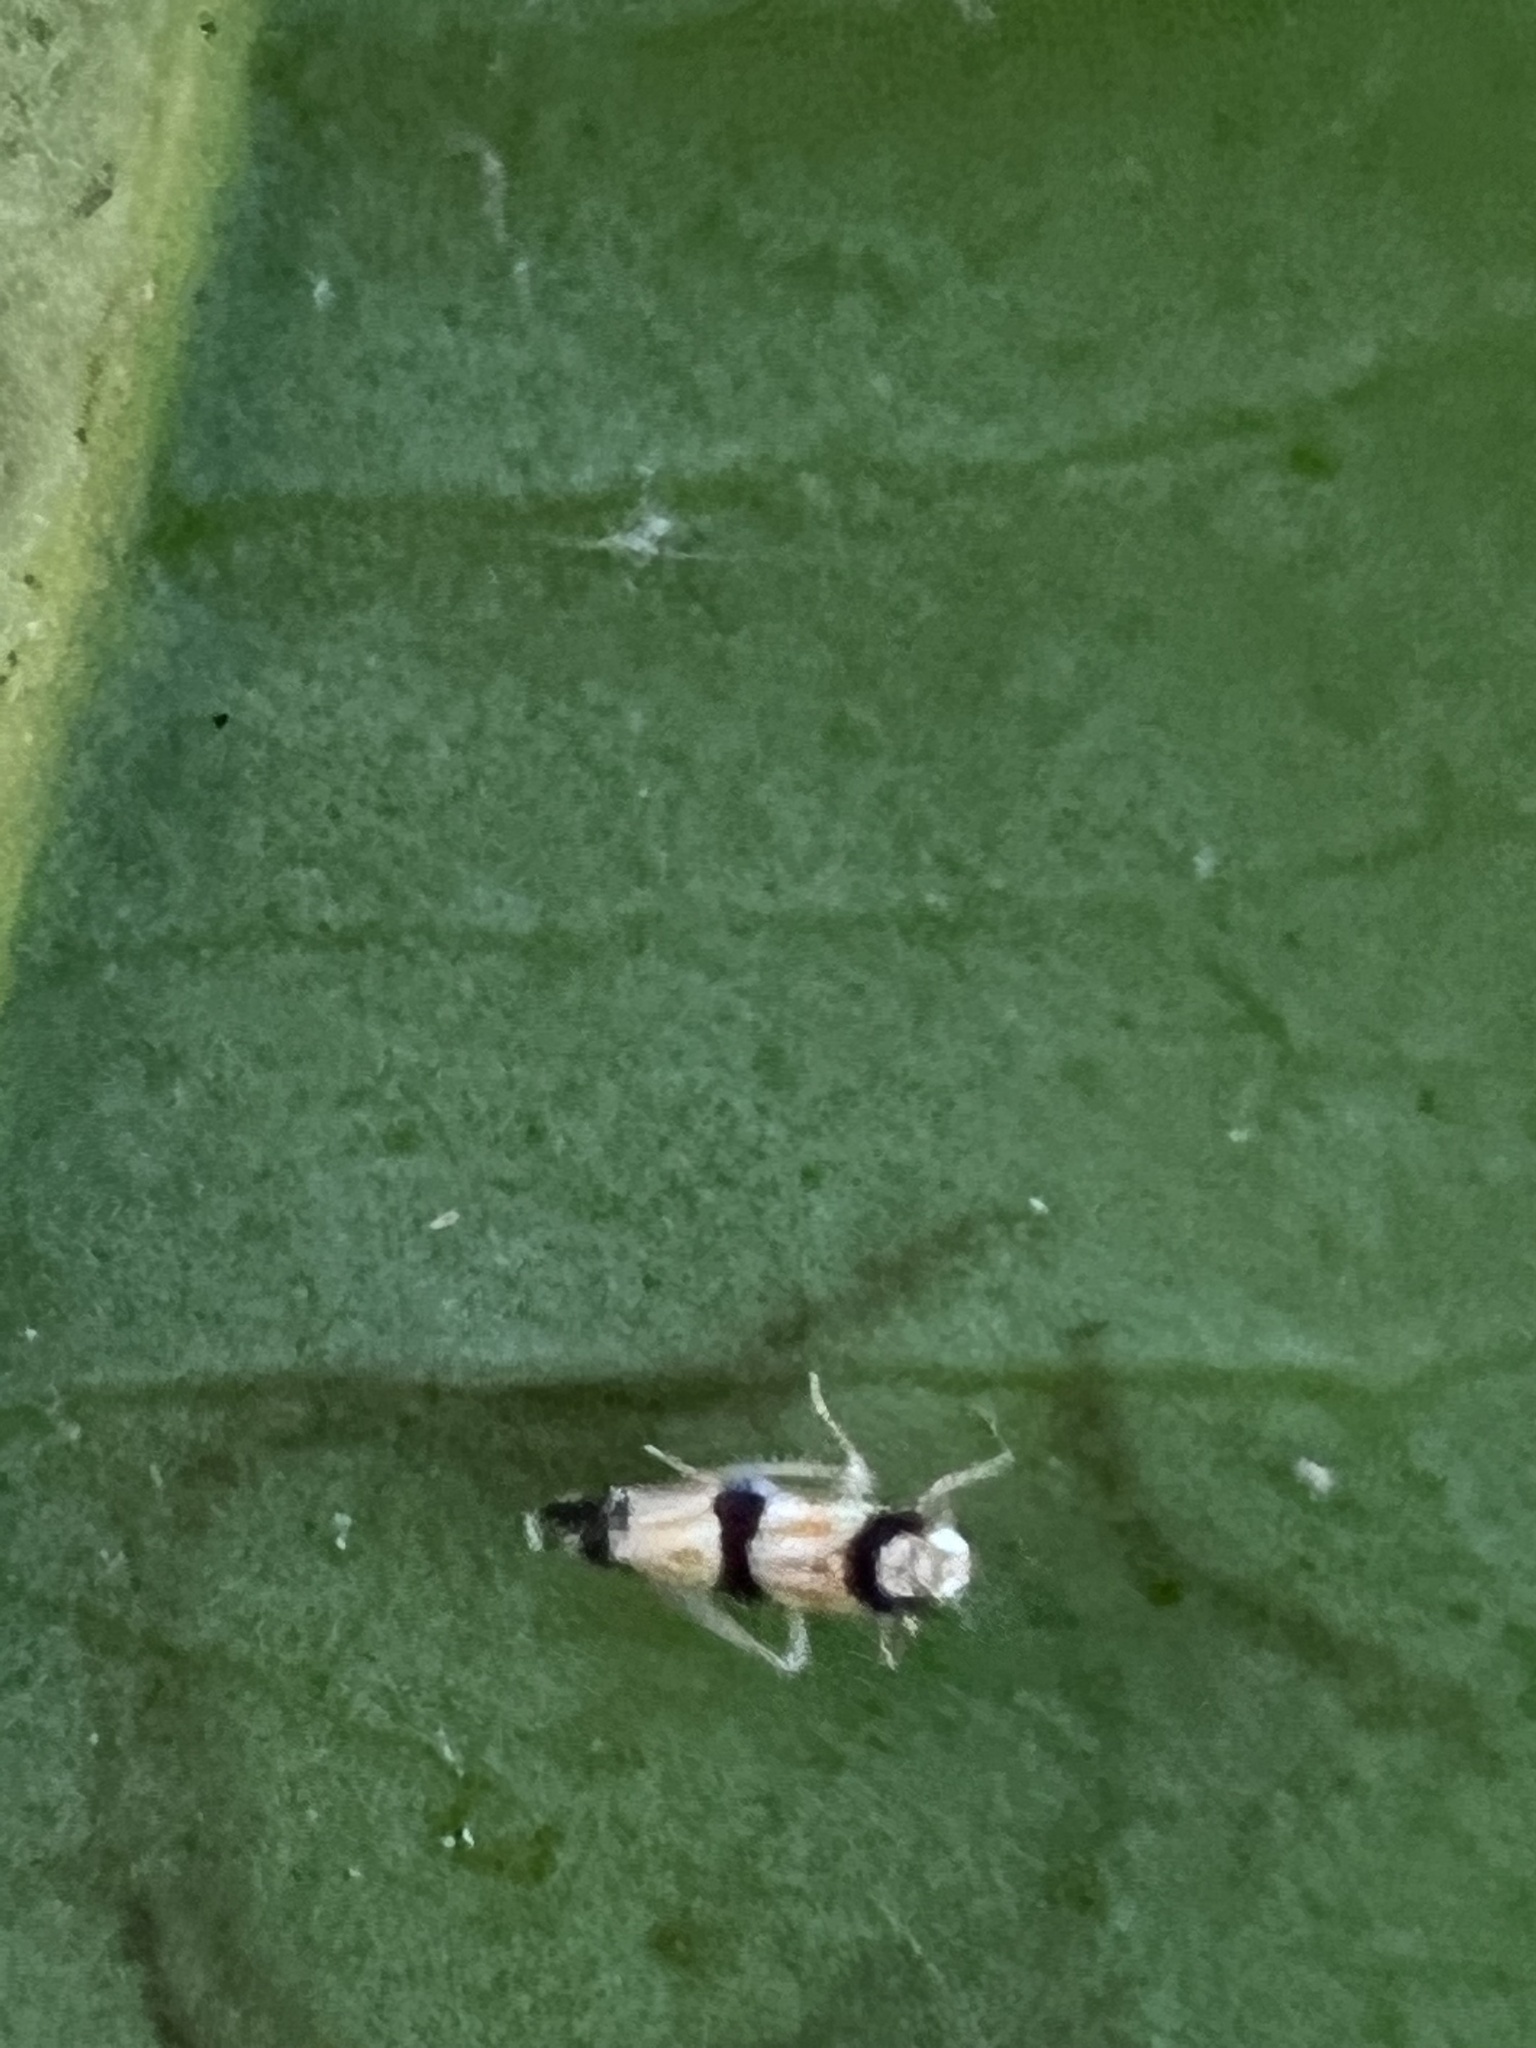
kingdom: Animalia
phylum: Arthropoda
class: Insecta
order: Hemiptera
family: Cicadellidae
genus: Erythroneura
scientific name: Erythroneura calycula
